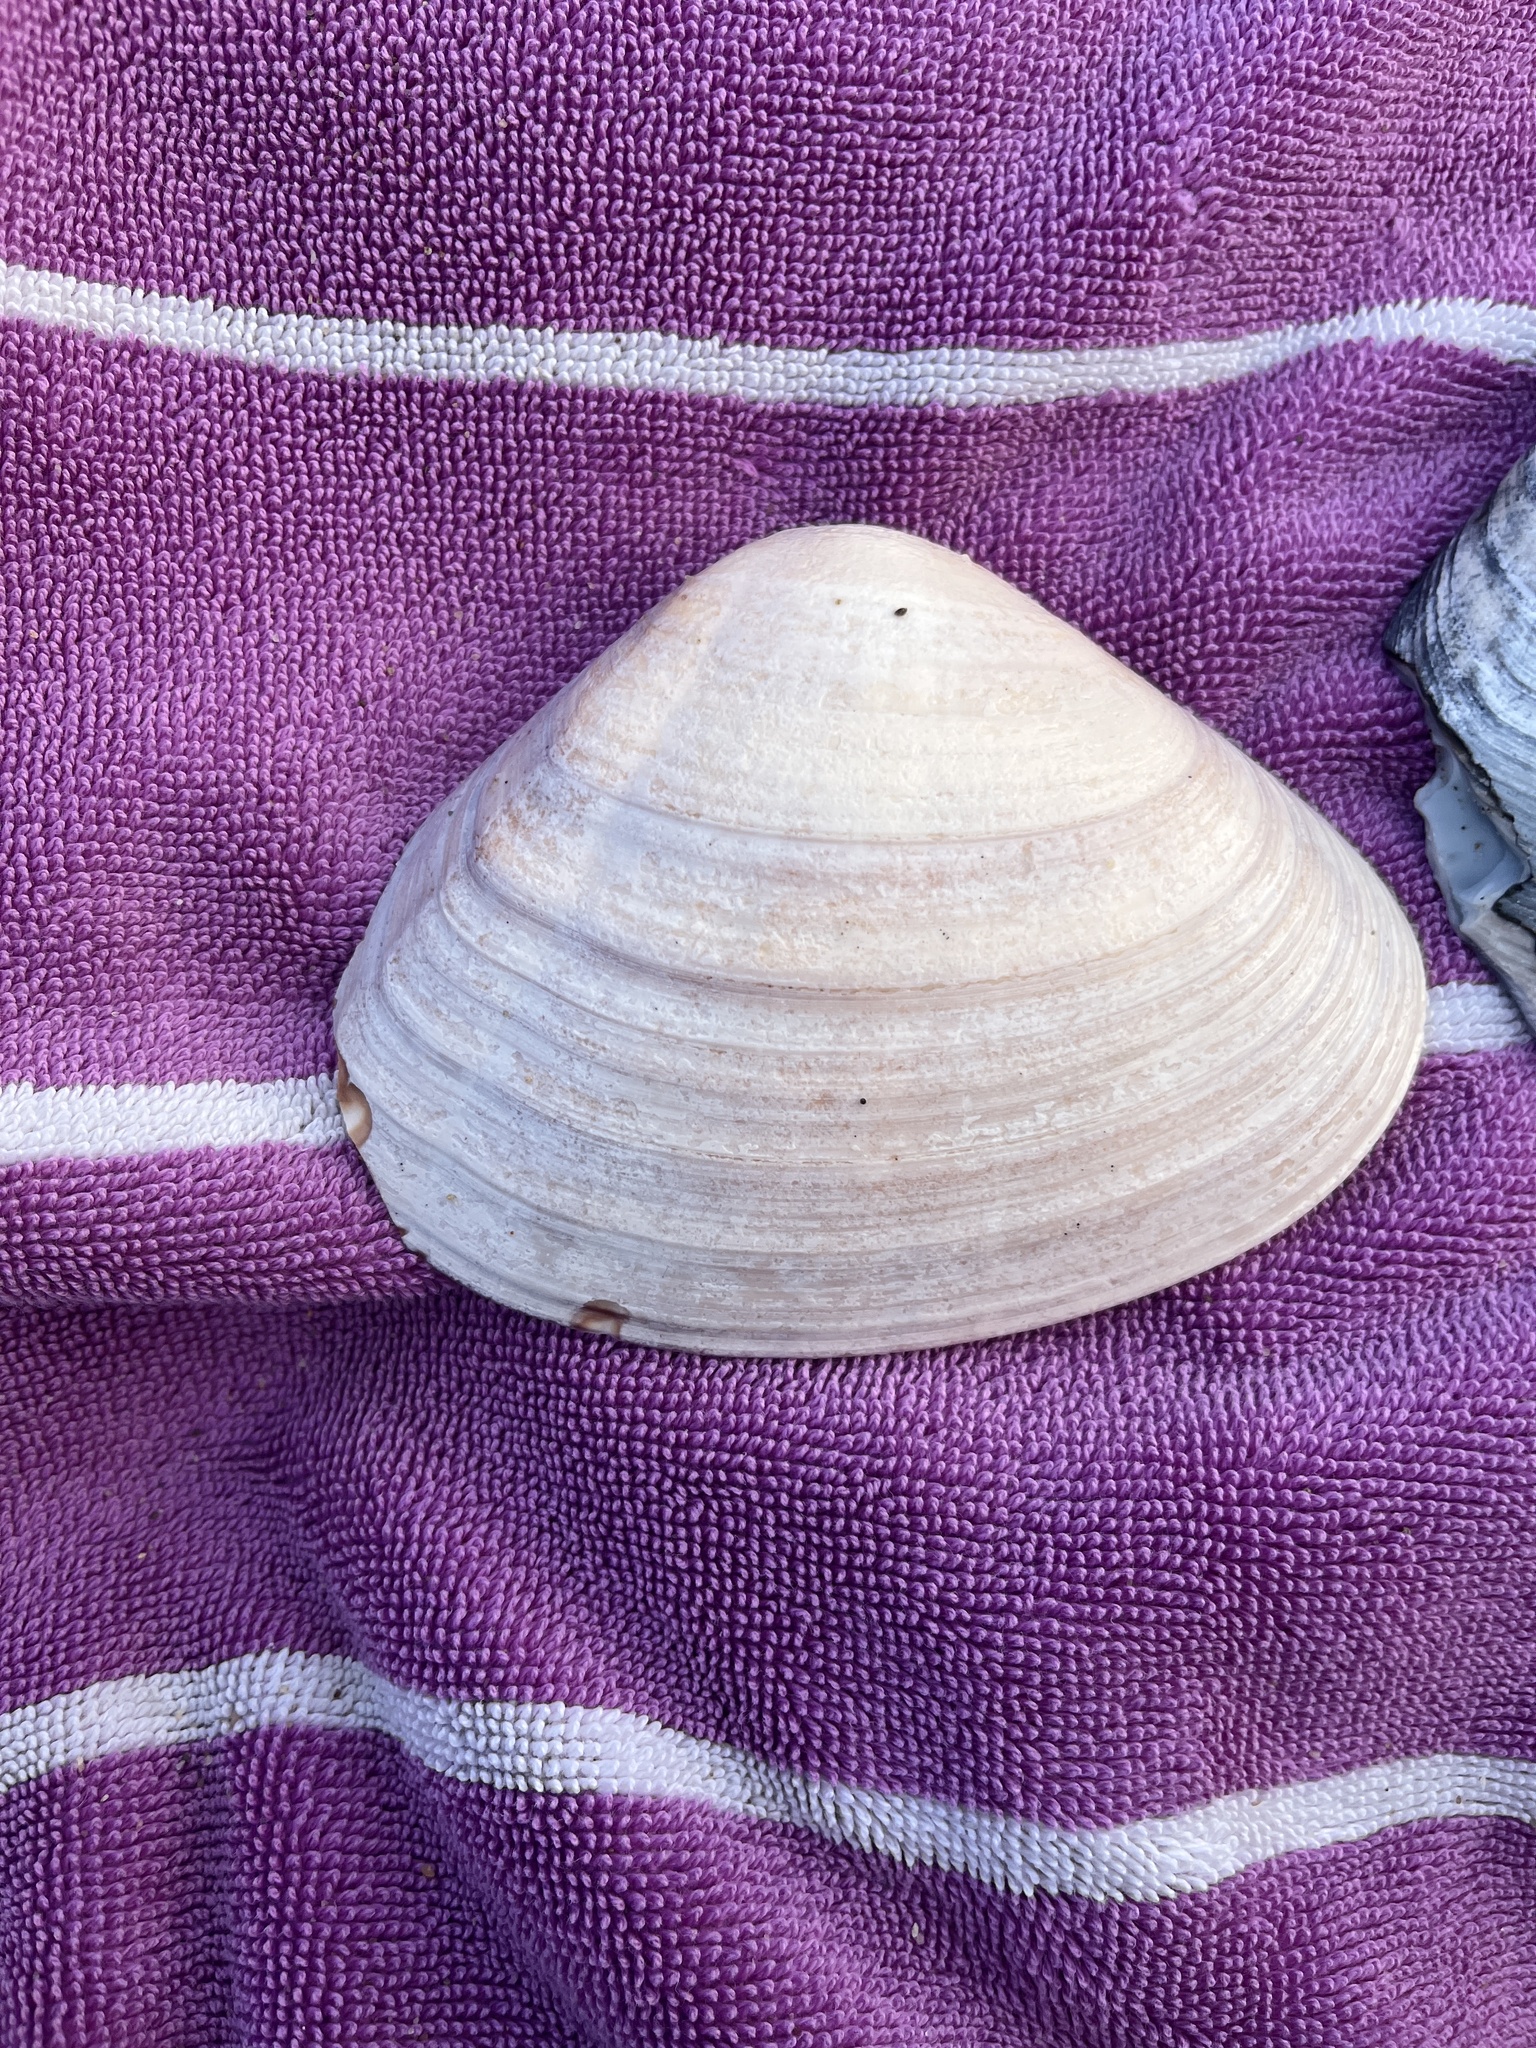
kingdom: Animalia
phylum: Mollusca
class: Bivalvia
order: Venerida
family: Veneridae
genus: Tivela
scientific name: Tivela stultorum
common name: Pismo clam
